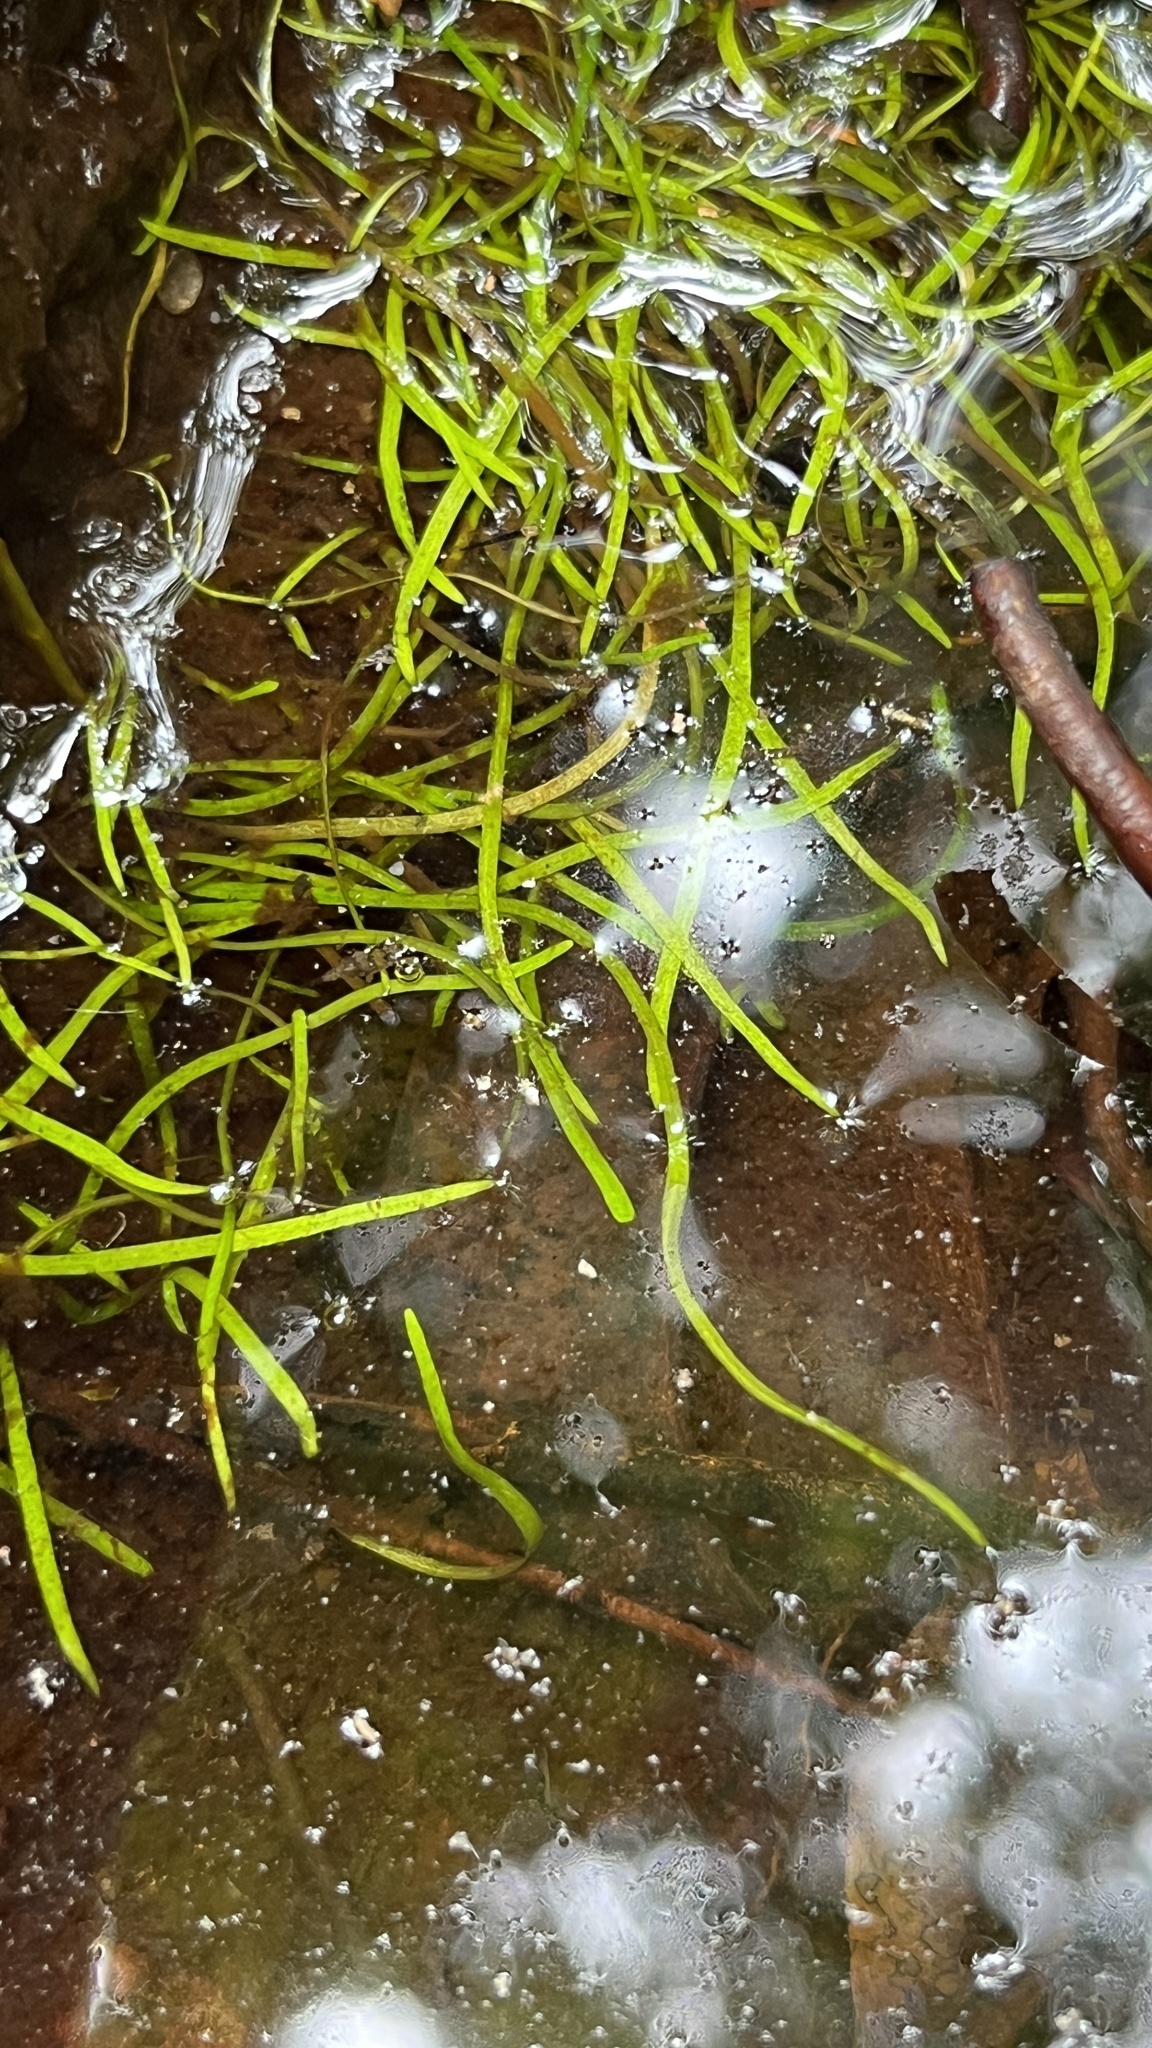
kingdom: Plantae
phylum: Tracheophyta
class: Magnoliopsida
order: Lamiales
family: Lentibulariaceae
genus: Utricularia
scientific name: Utricularia odorata
